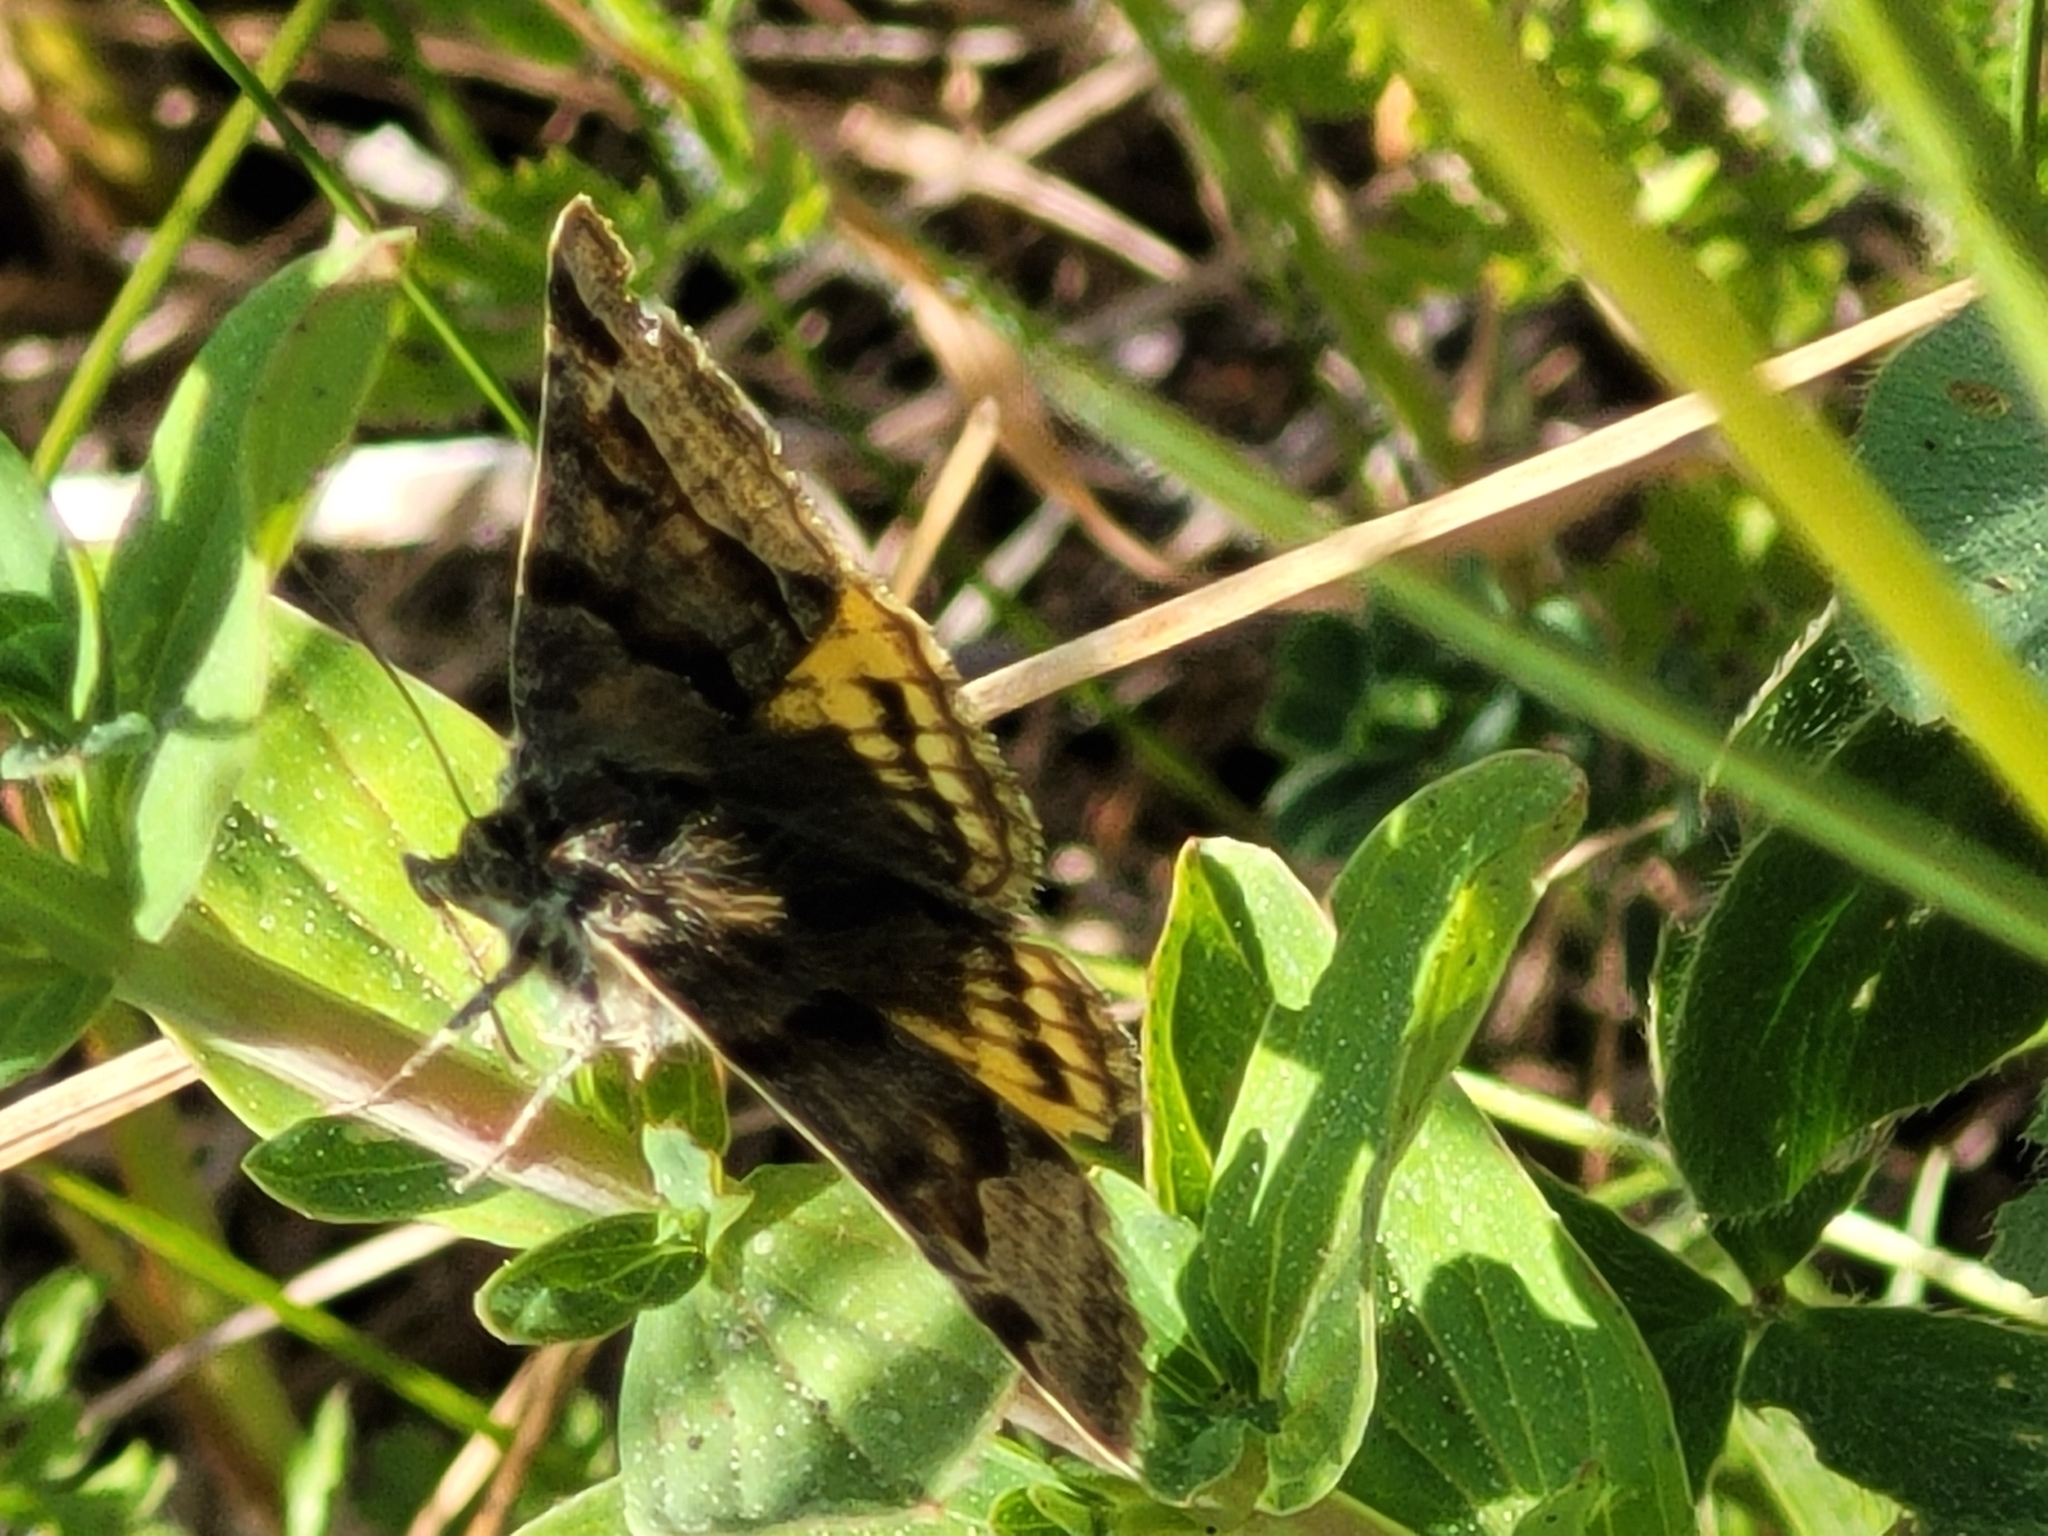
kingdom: Animalia
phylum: Arthropoda
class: Insecta
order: Lepidoptera
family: Erebidae
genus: Euclidia
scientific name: Euclidia glyphica
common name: Burnet companion
